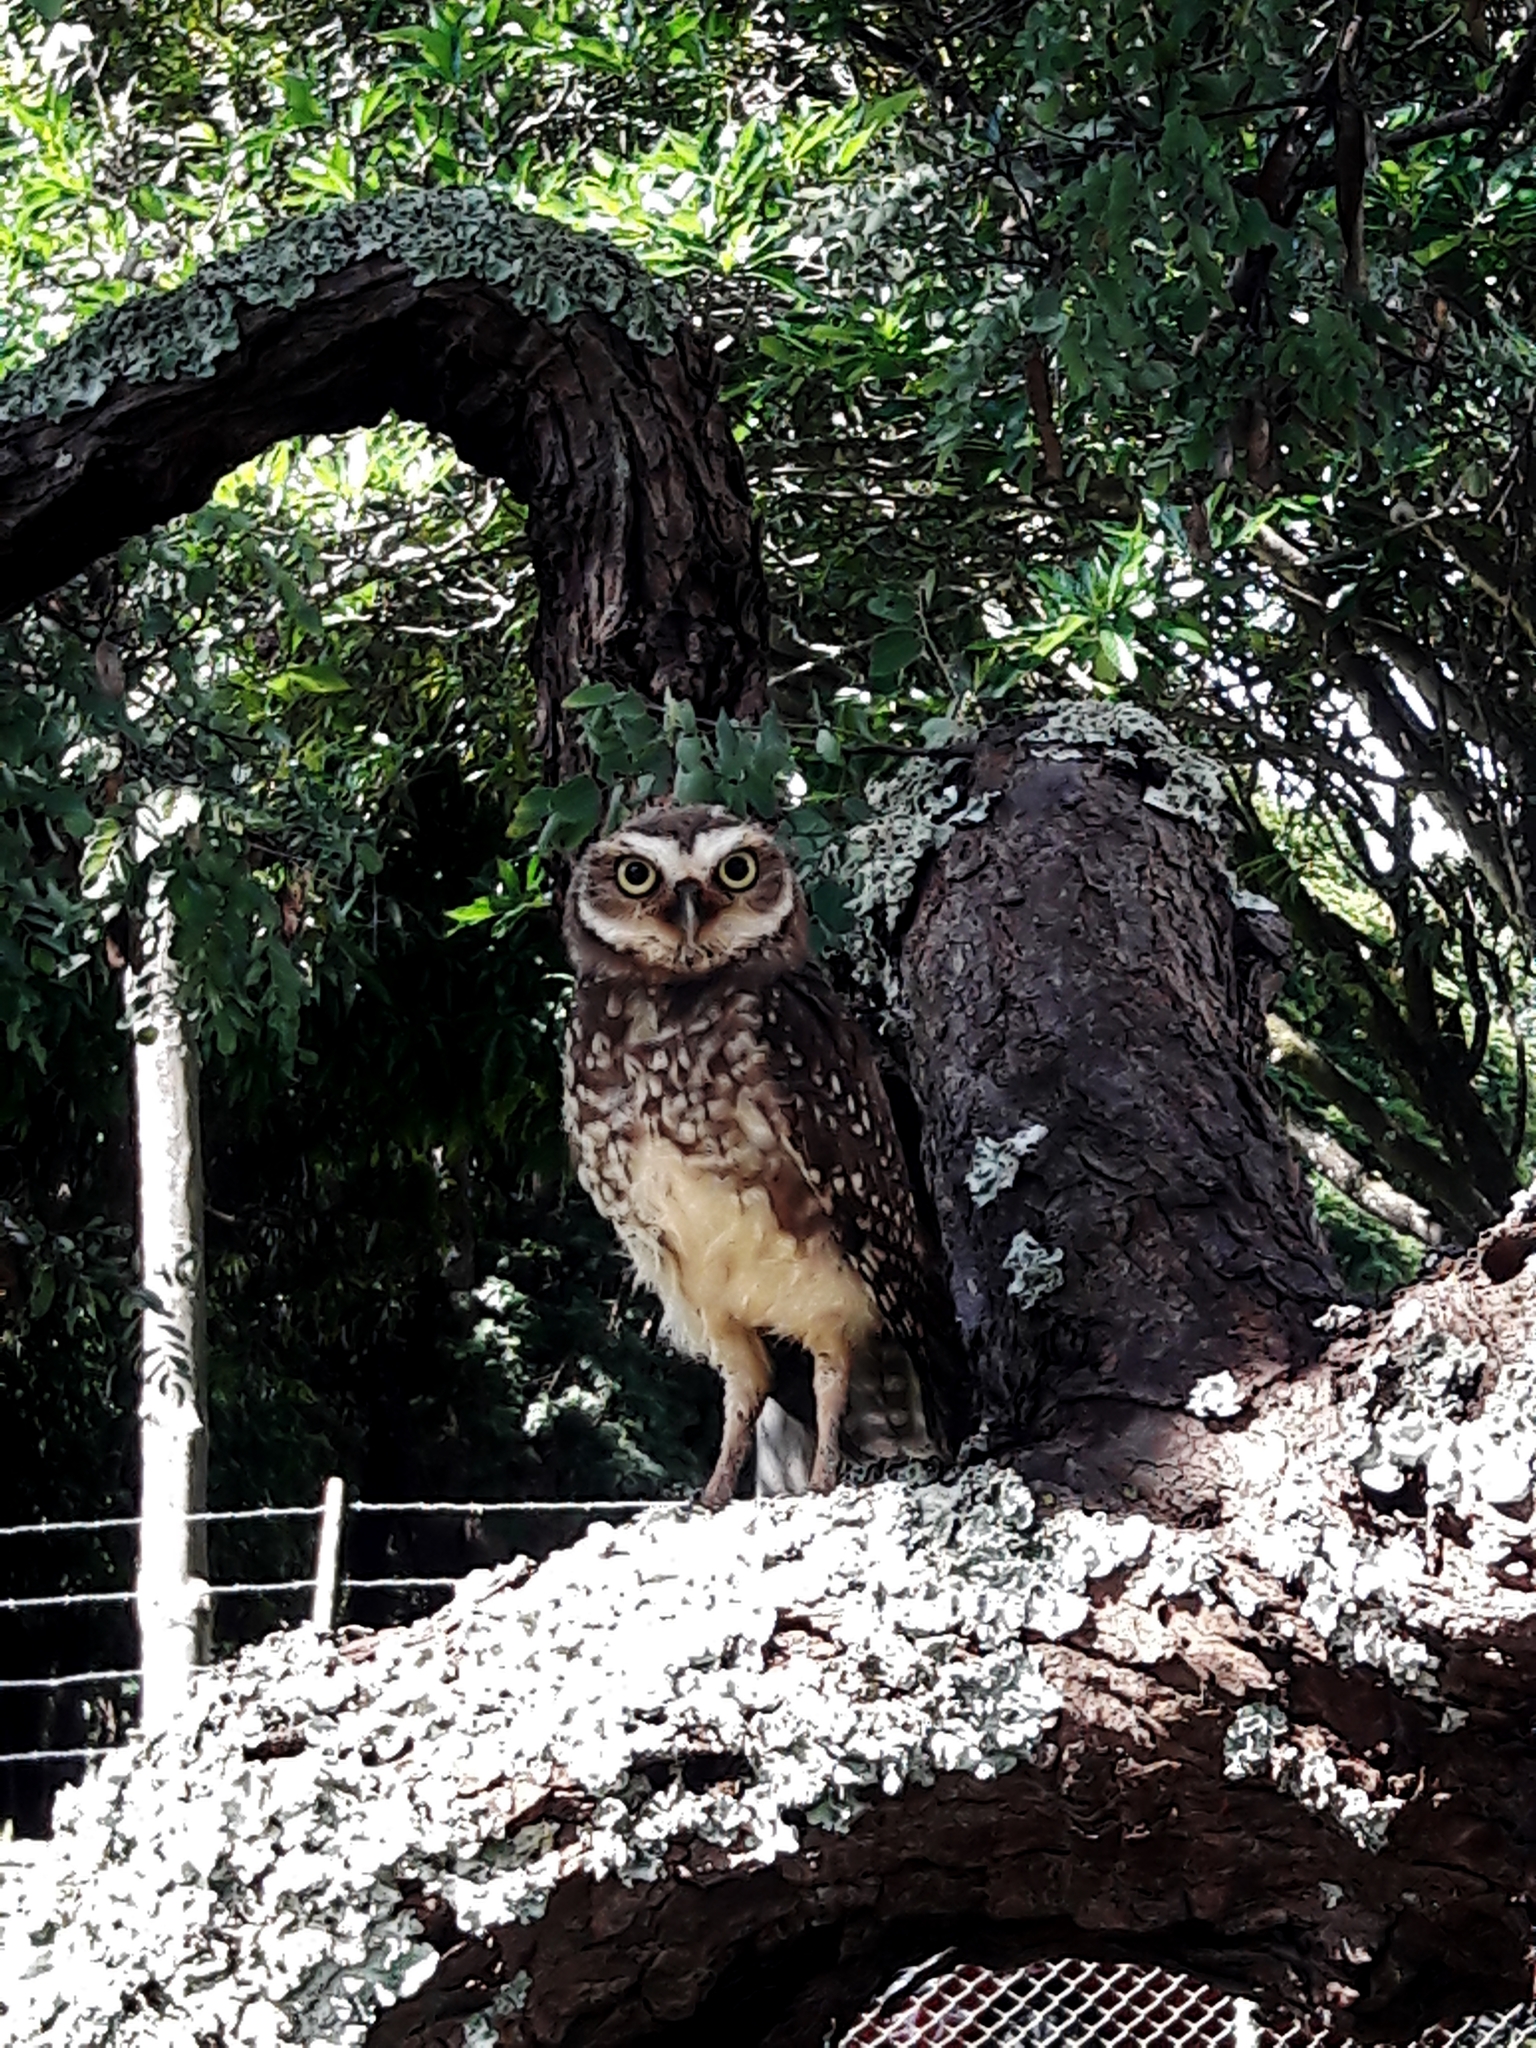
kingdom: Animalia
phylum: Chordata
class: Aves
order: Strigiformes
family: Strigidae
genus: Athene
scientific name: Athene cunicularia
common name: Burrowing owl
